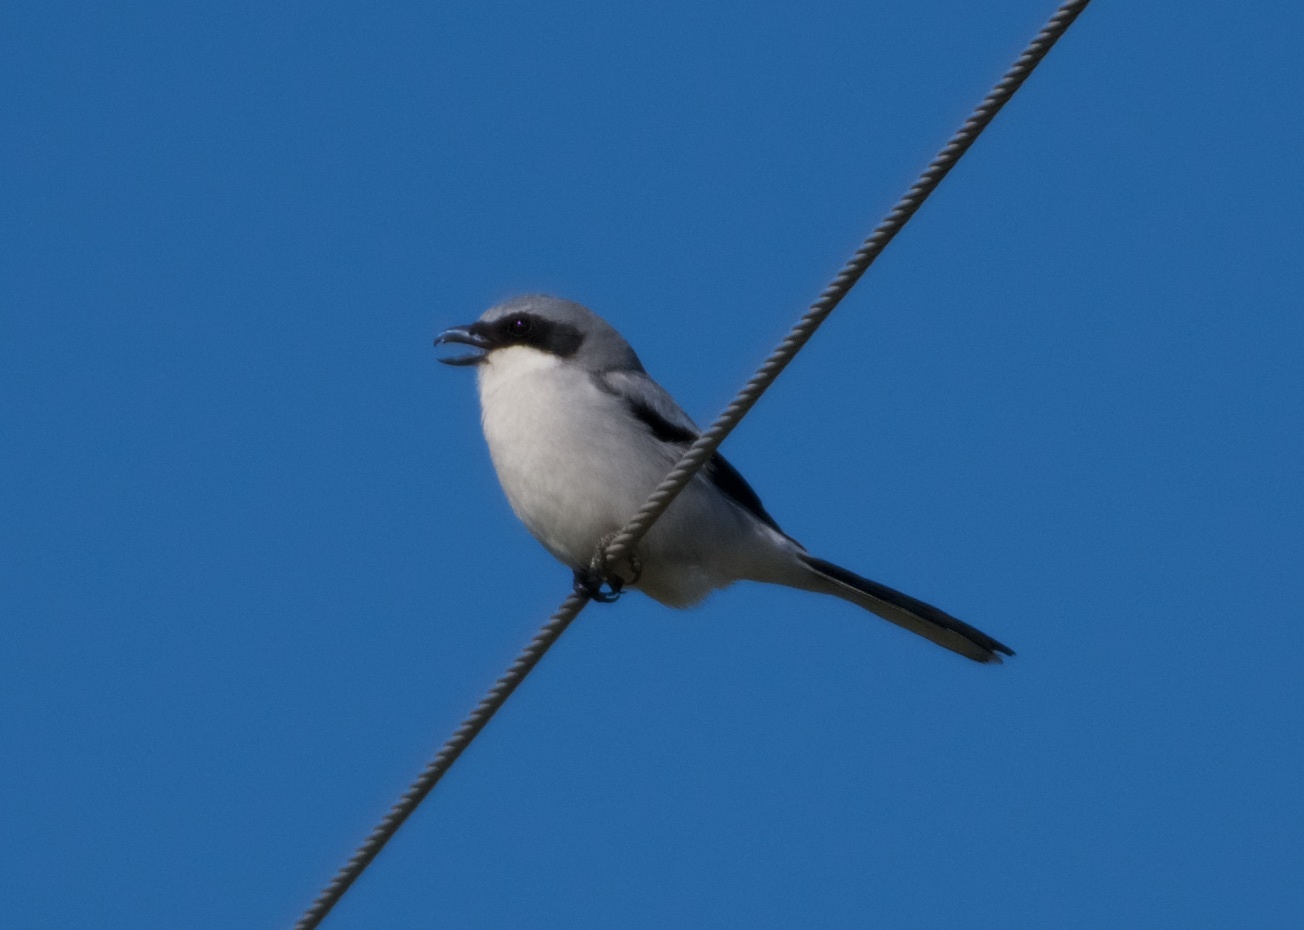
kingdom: Animalia
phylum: Chordata
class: Aves
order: Passeriformes
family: Laniidae
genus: Lanius
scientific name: Lanius ludovicianus
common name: Loggerhead shrike
